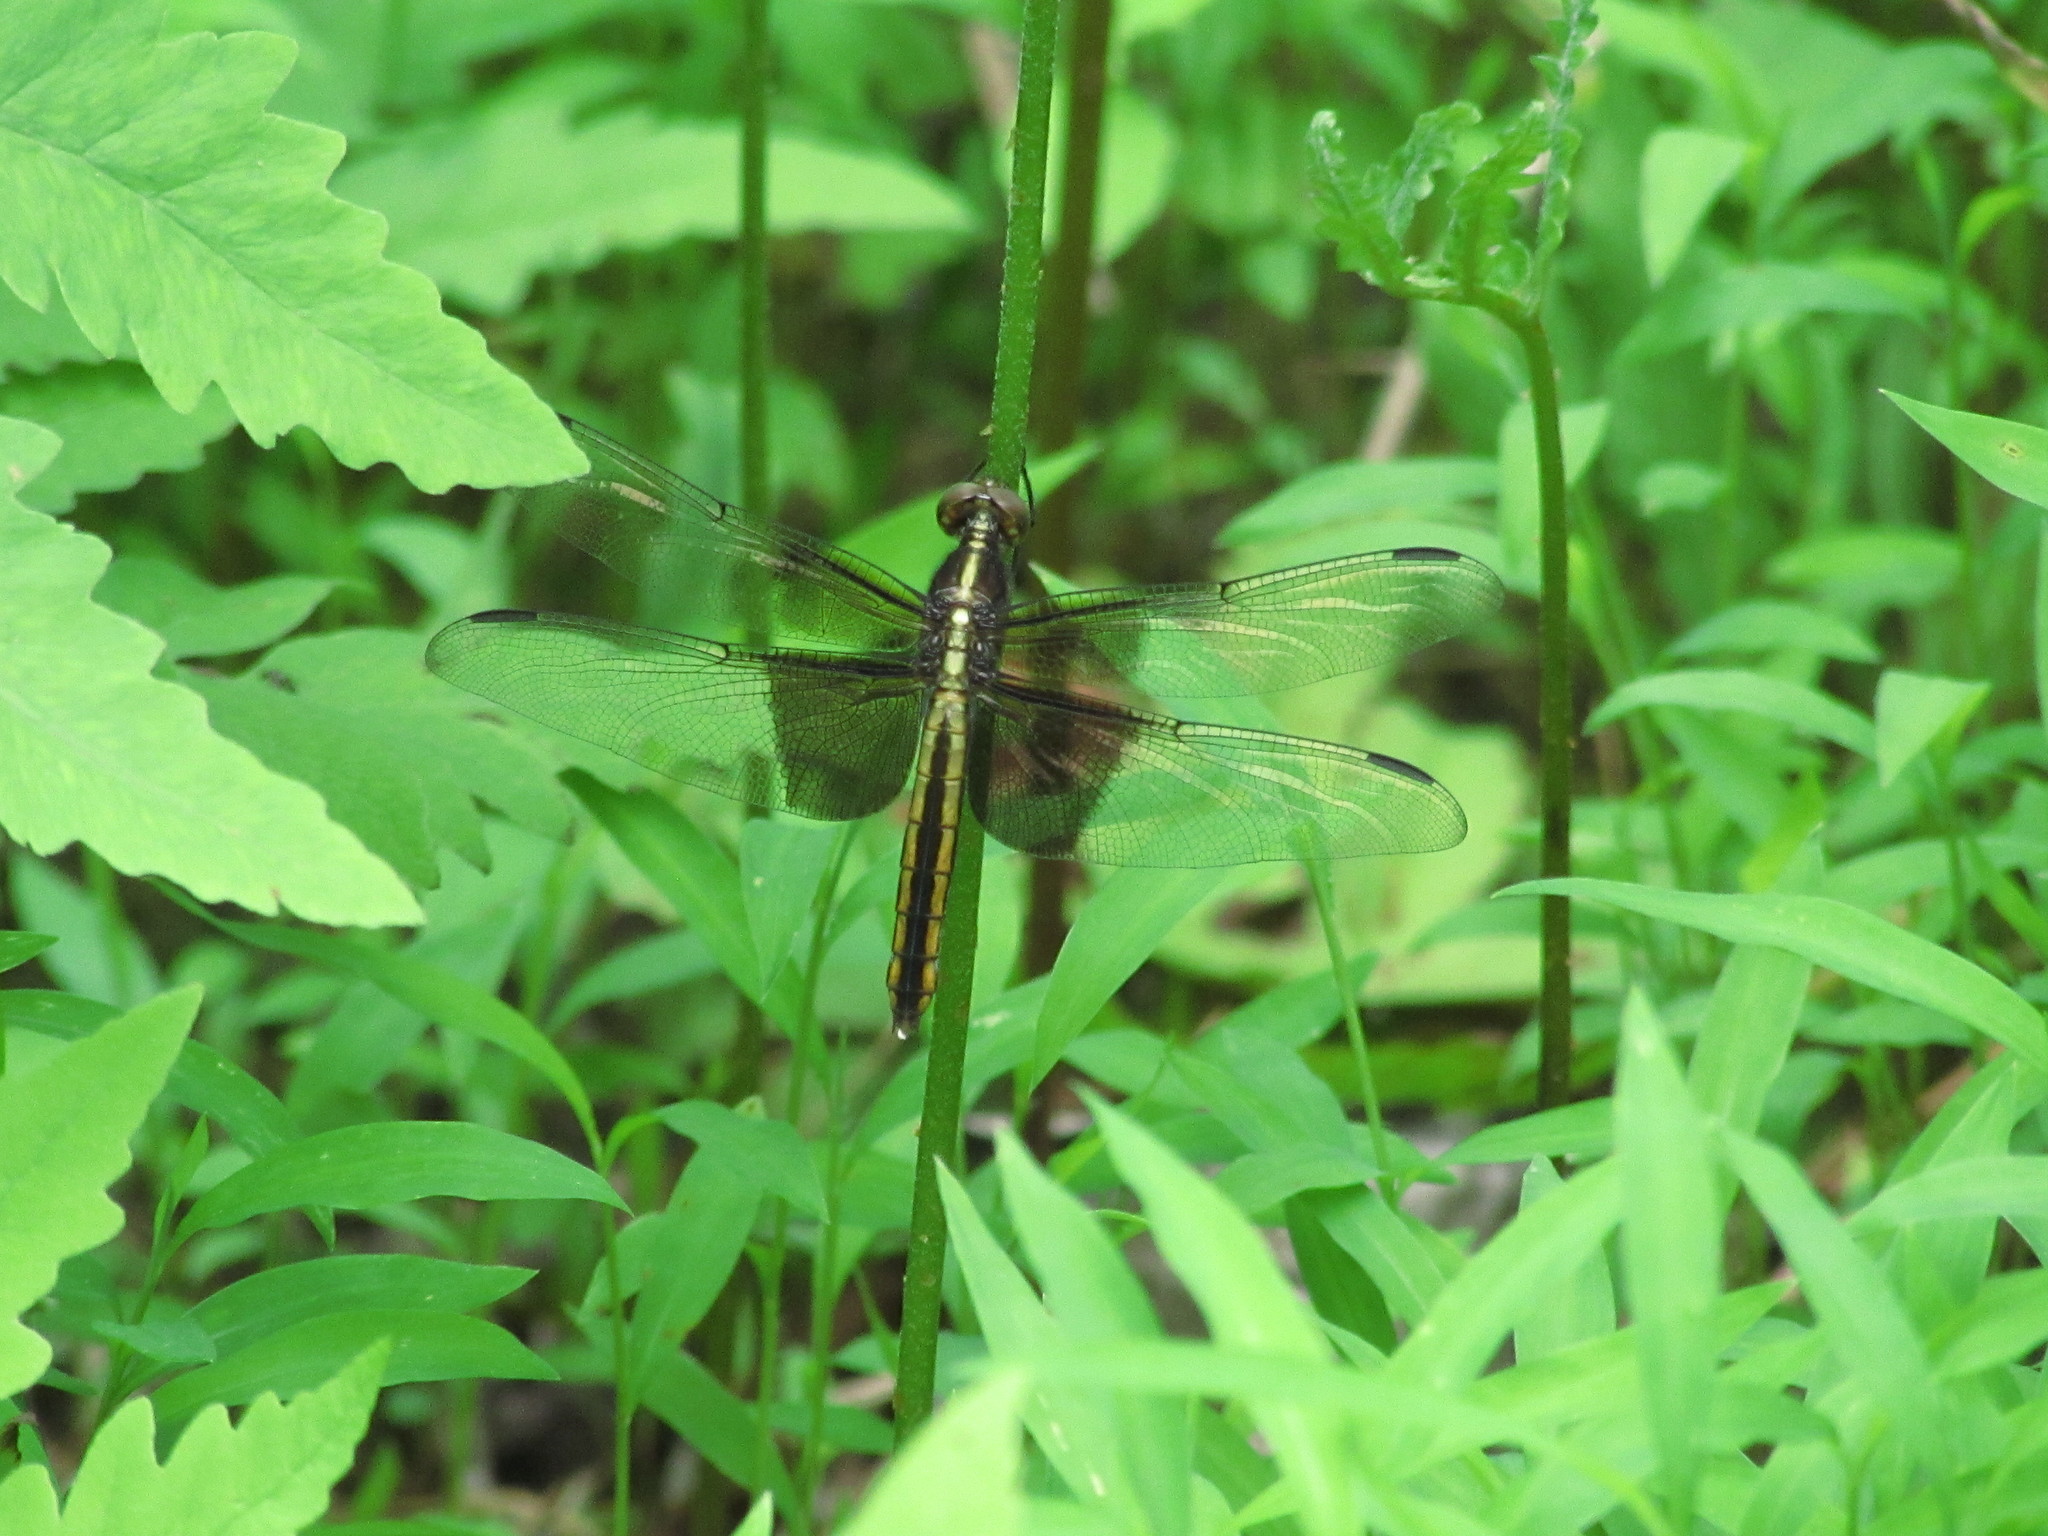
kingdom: Animalia
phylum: Arthropoda
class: Insecta
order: Odonata
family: Libellulidae
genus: Libellula
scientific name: Libellula luctuosa
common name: Widow skimmer
